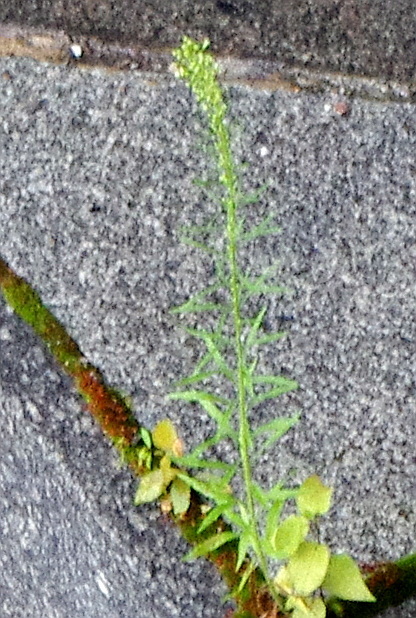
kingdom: Plantae
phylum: Tracheophyta
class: Magnoliopsida
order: Asterales
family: Asteraceae
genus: Erigeron
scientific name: Erigeron canadensis
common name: Canadian fleabane
